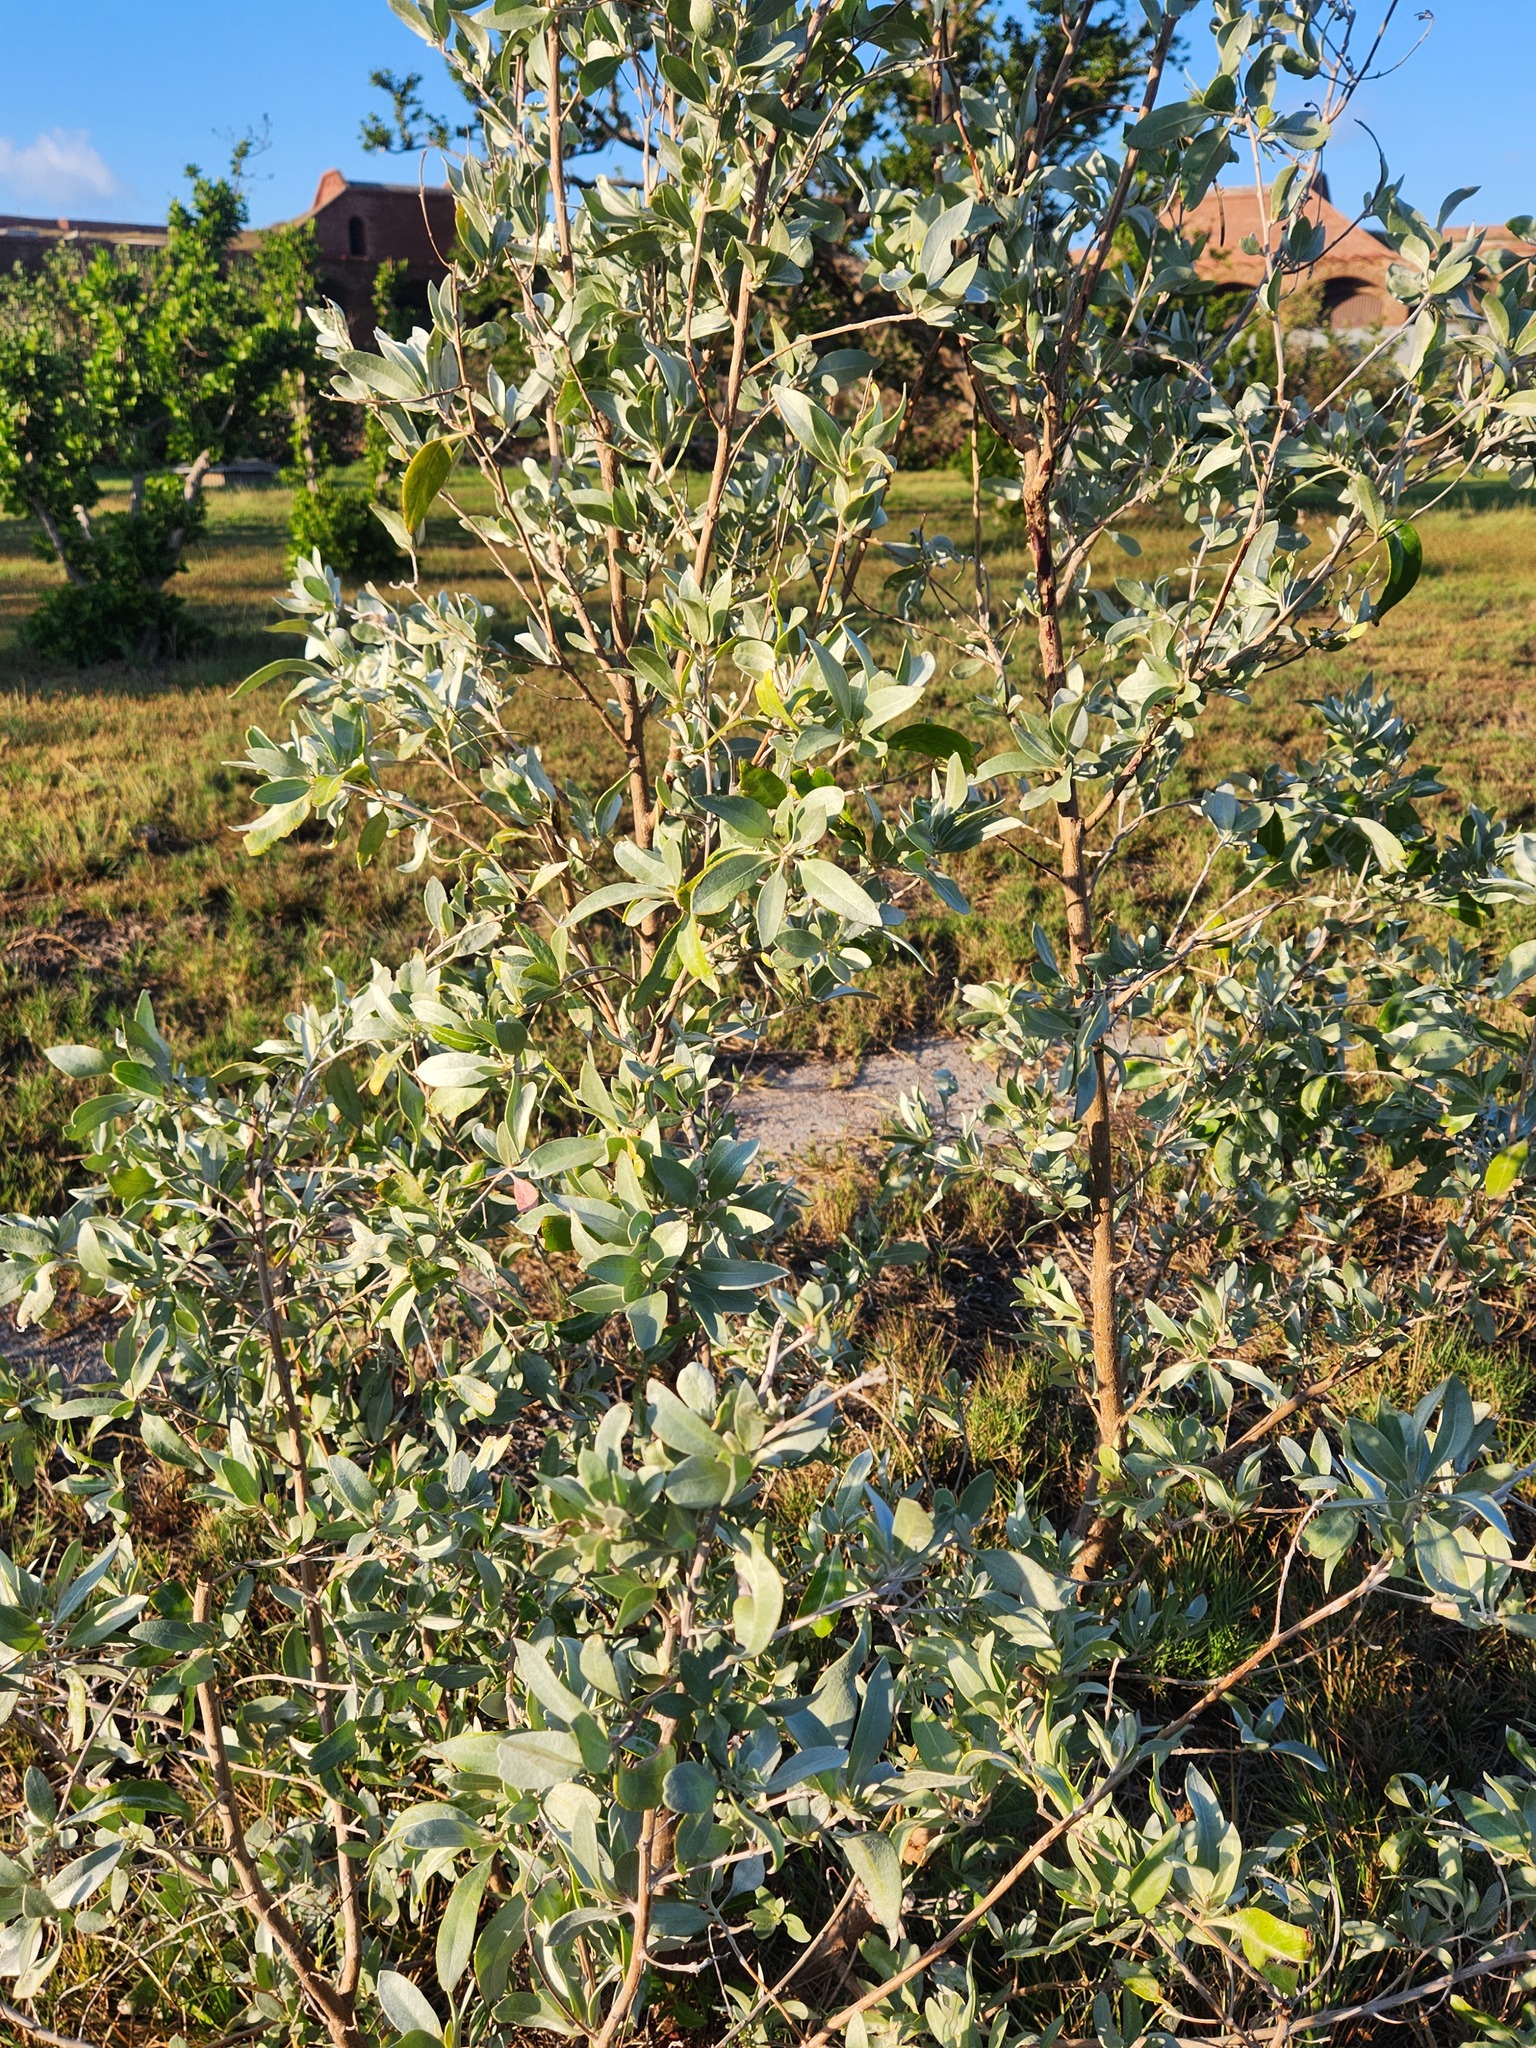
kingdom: Plantae
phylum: Tracheophyta
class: Magnoliopsida
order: Myrtales
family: Combretaceae
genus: Conocarpus
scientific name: Conocarpus erectus
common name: Button mangrove
